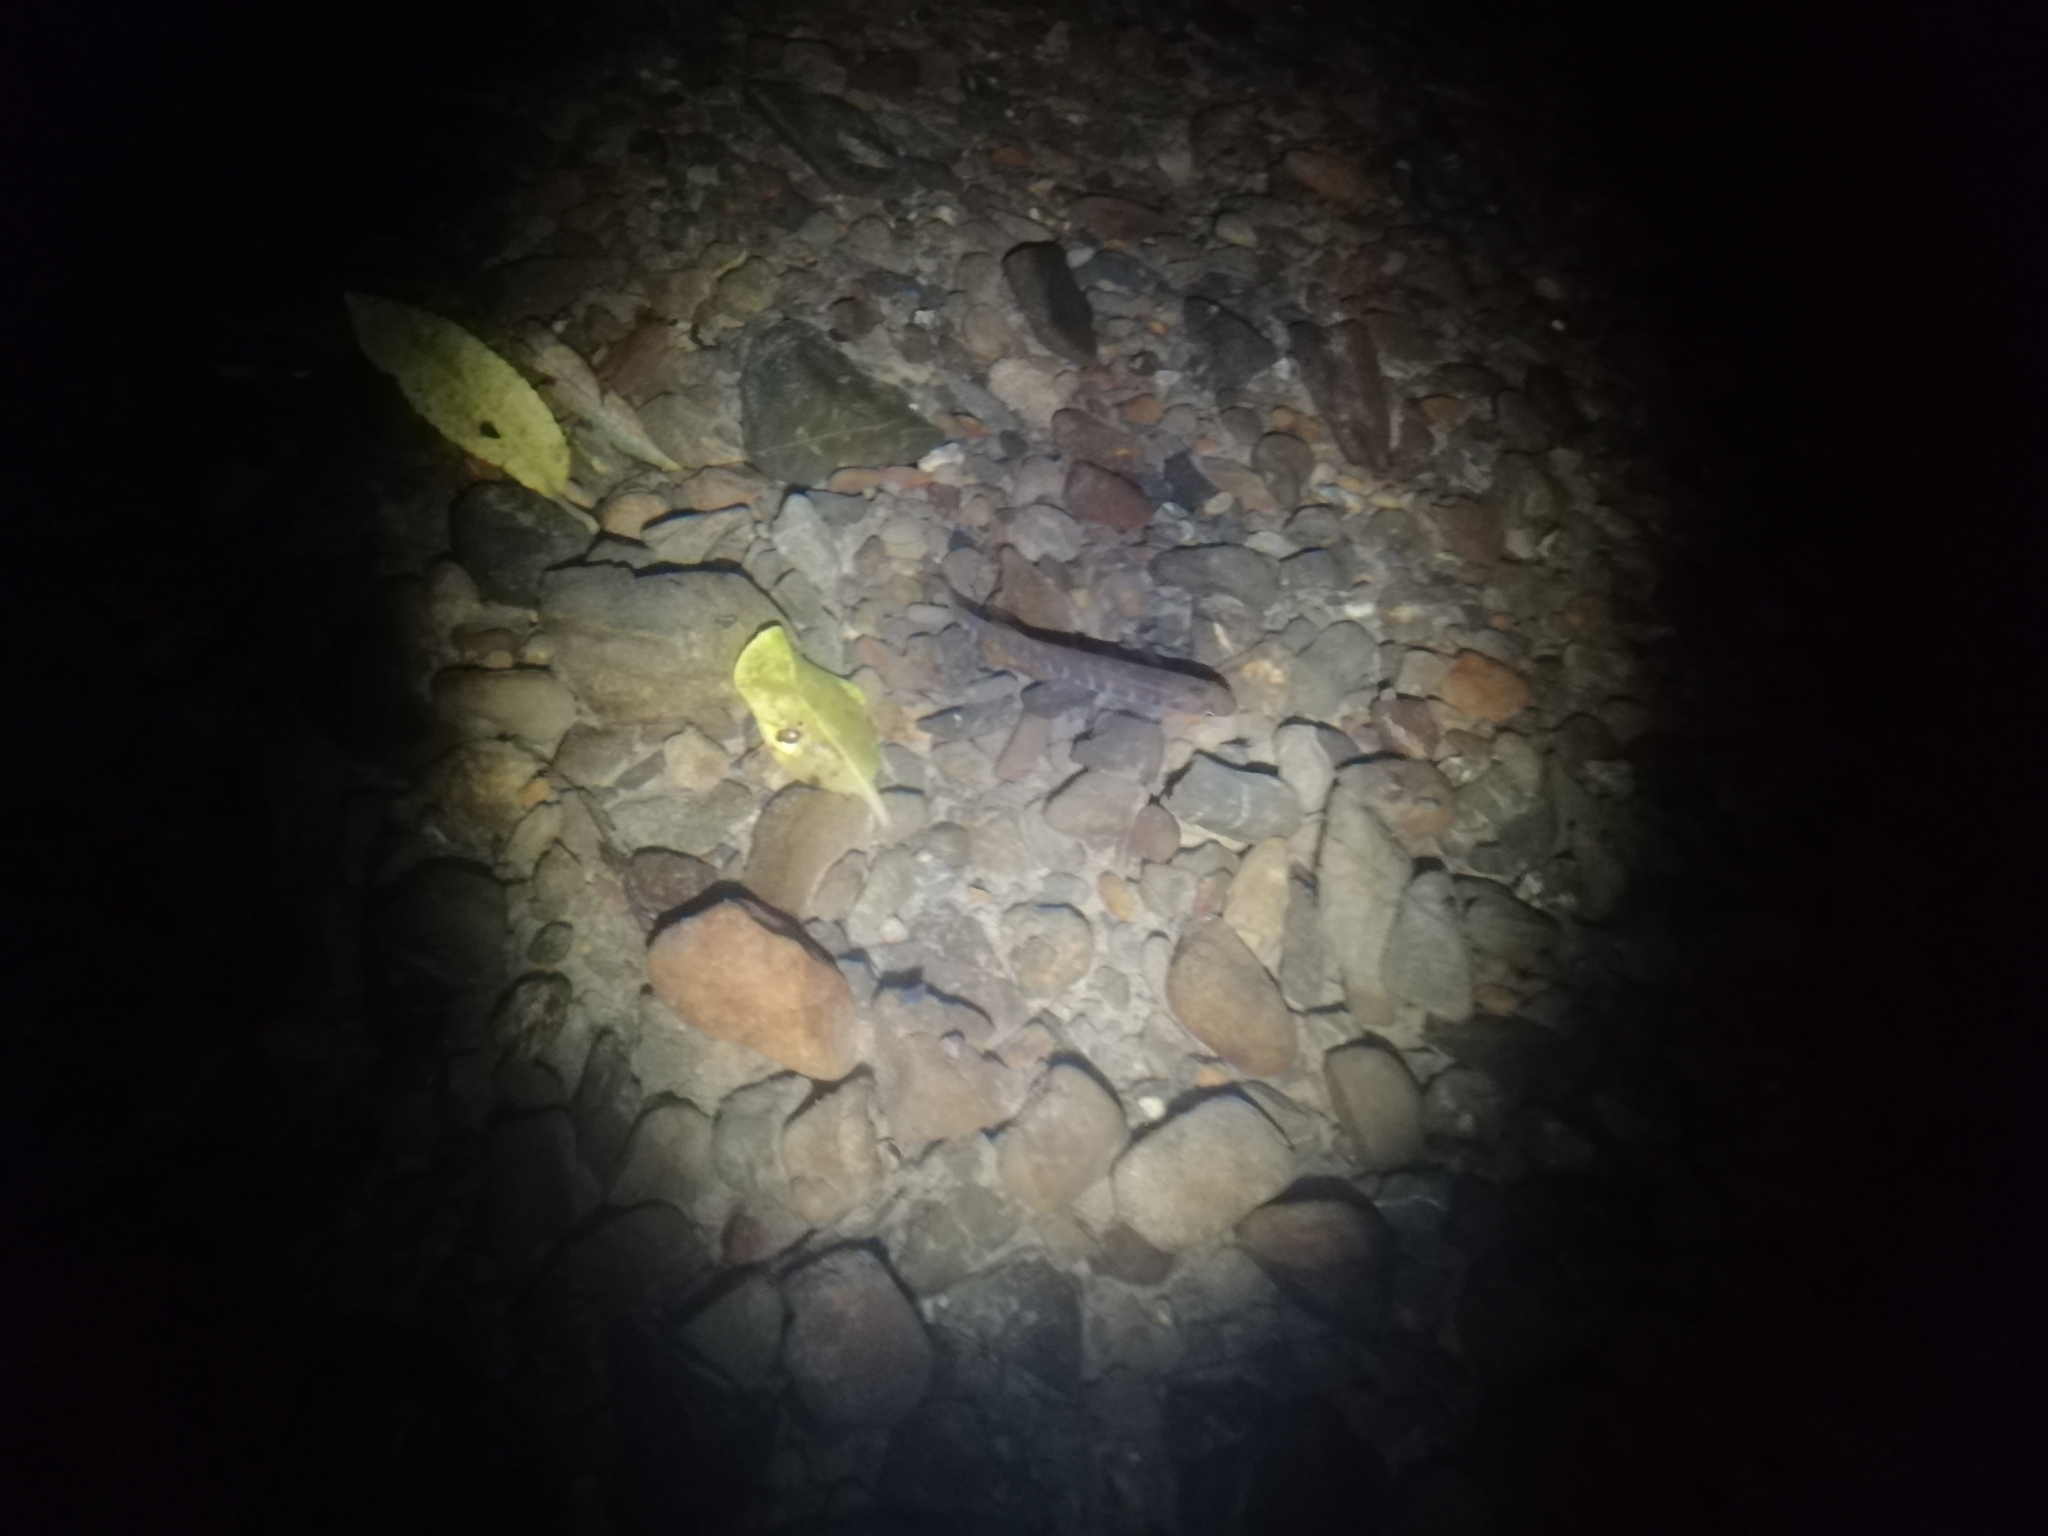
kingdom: Animalia
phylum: Chordata
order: Osmeriformes
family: Galaxiidae
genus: Galaxias
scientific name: Galaxias fasciatus
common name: Banded kokopu
